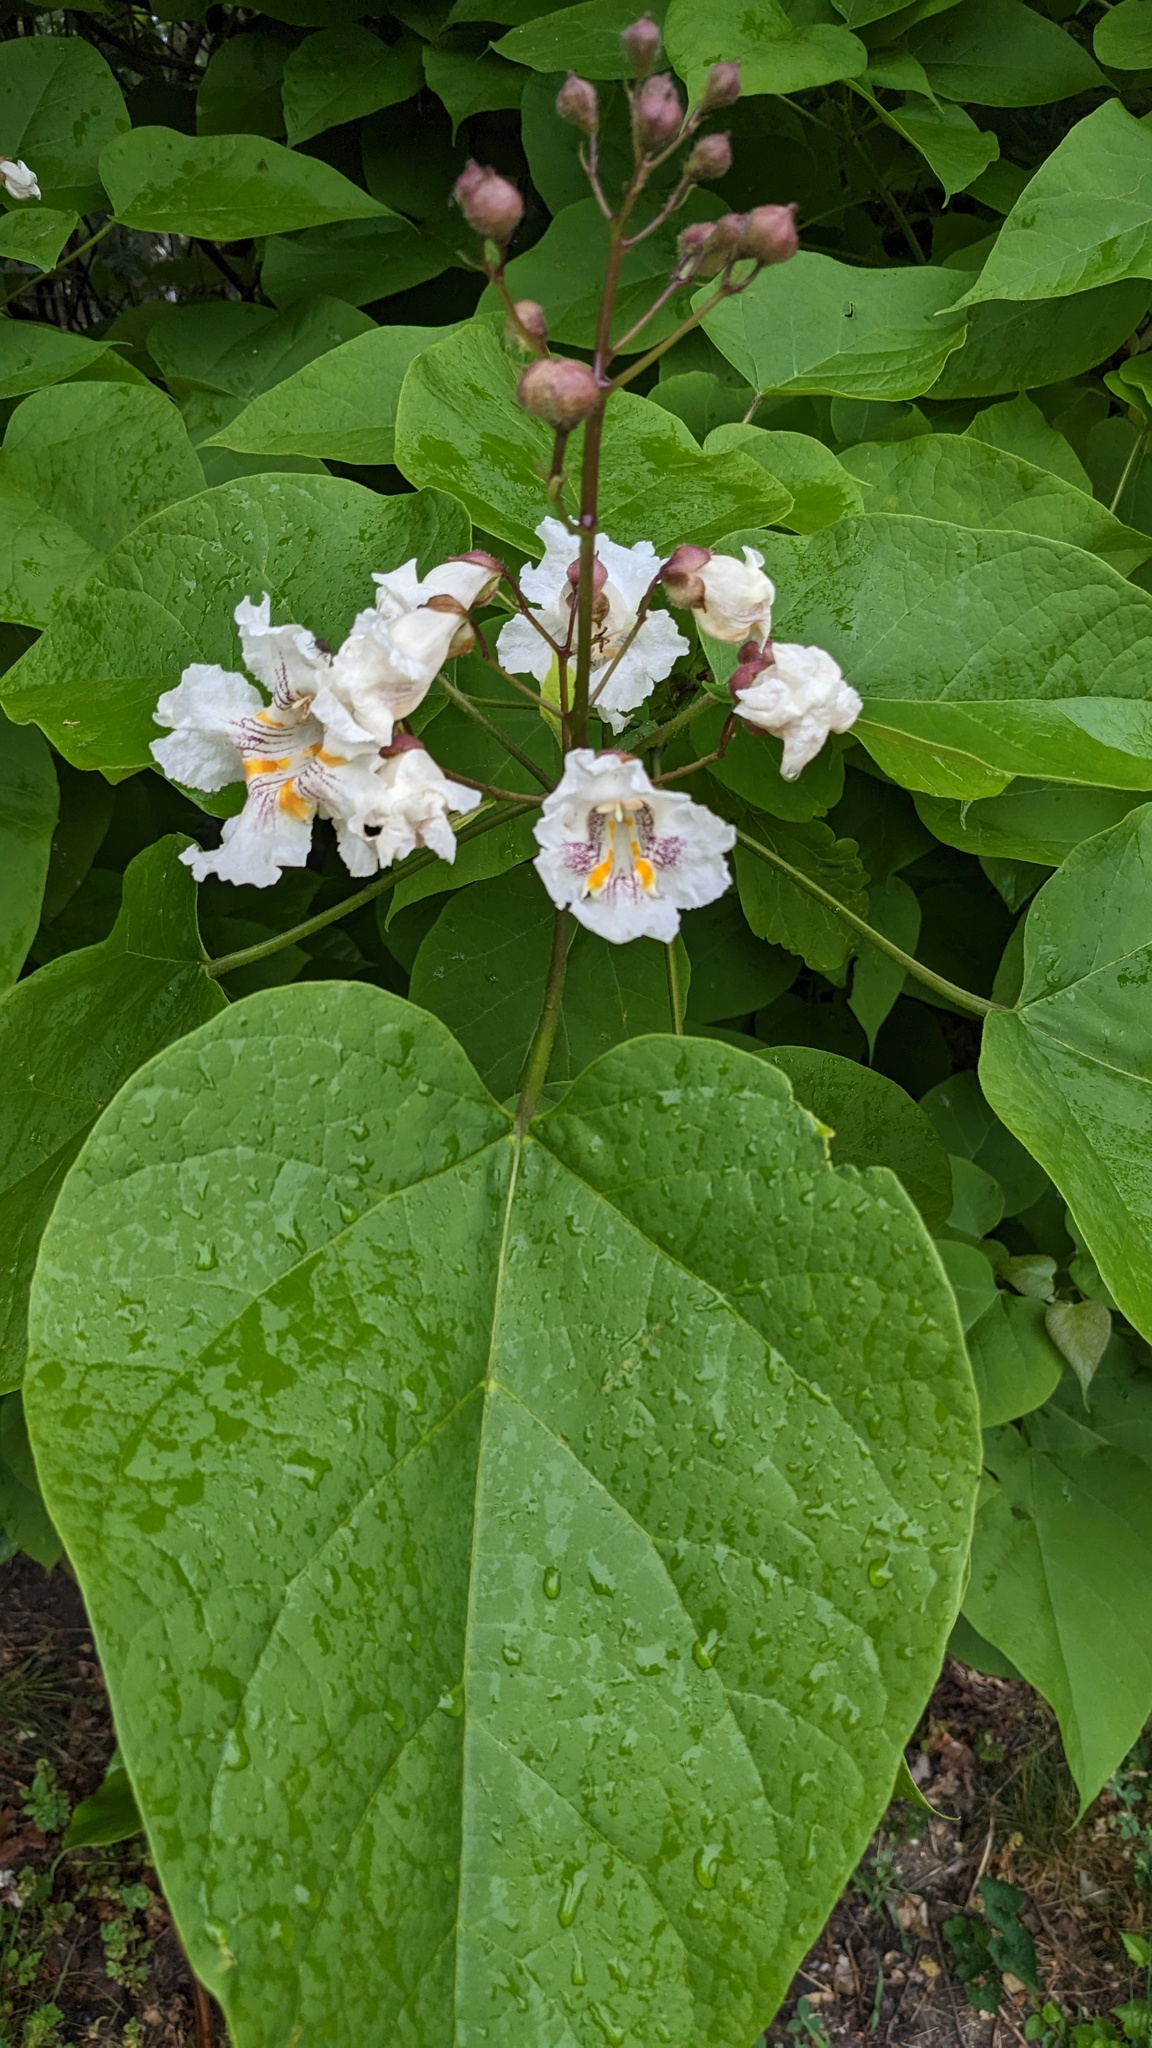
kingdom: Plantae
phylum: Tracheophyta
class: Magnoliopsida
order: Lamiales
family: Bignoniaceae
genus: Catalpa
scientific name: Catalpa speciosa
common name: Northern catalpa
